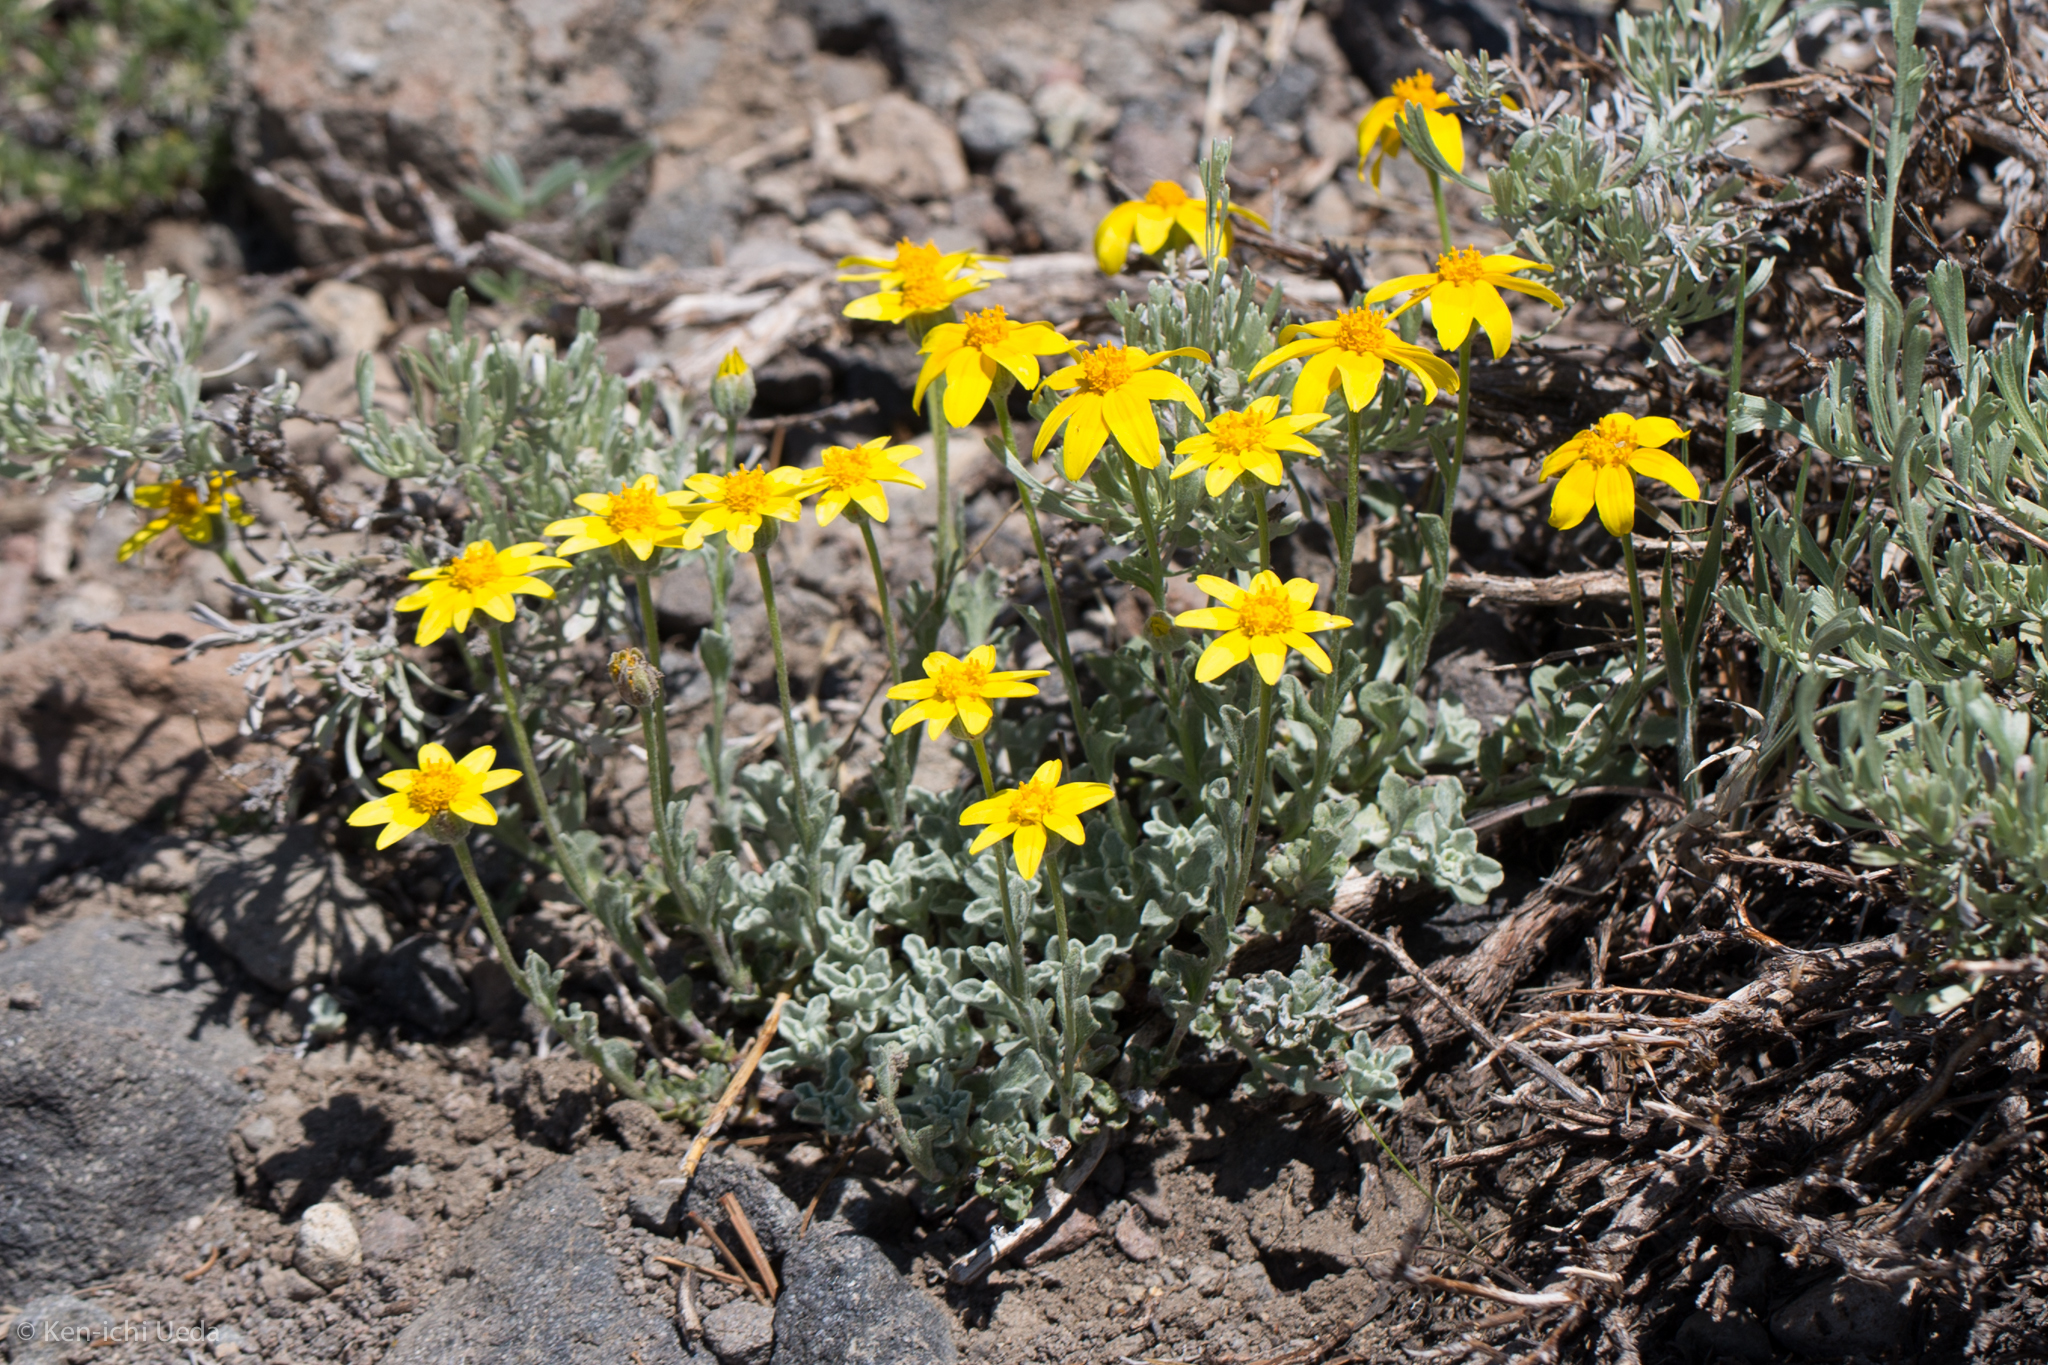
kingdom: Plantae
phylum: Tracheophyta
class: Magnoliopsida
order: Asterales
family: Asteraceae
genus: Eriophyllum
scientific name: Eriophyllum lanatum
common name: Common woolly-sunflower
